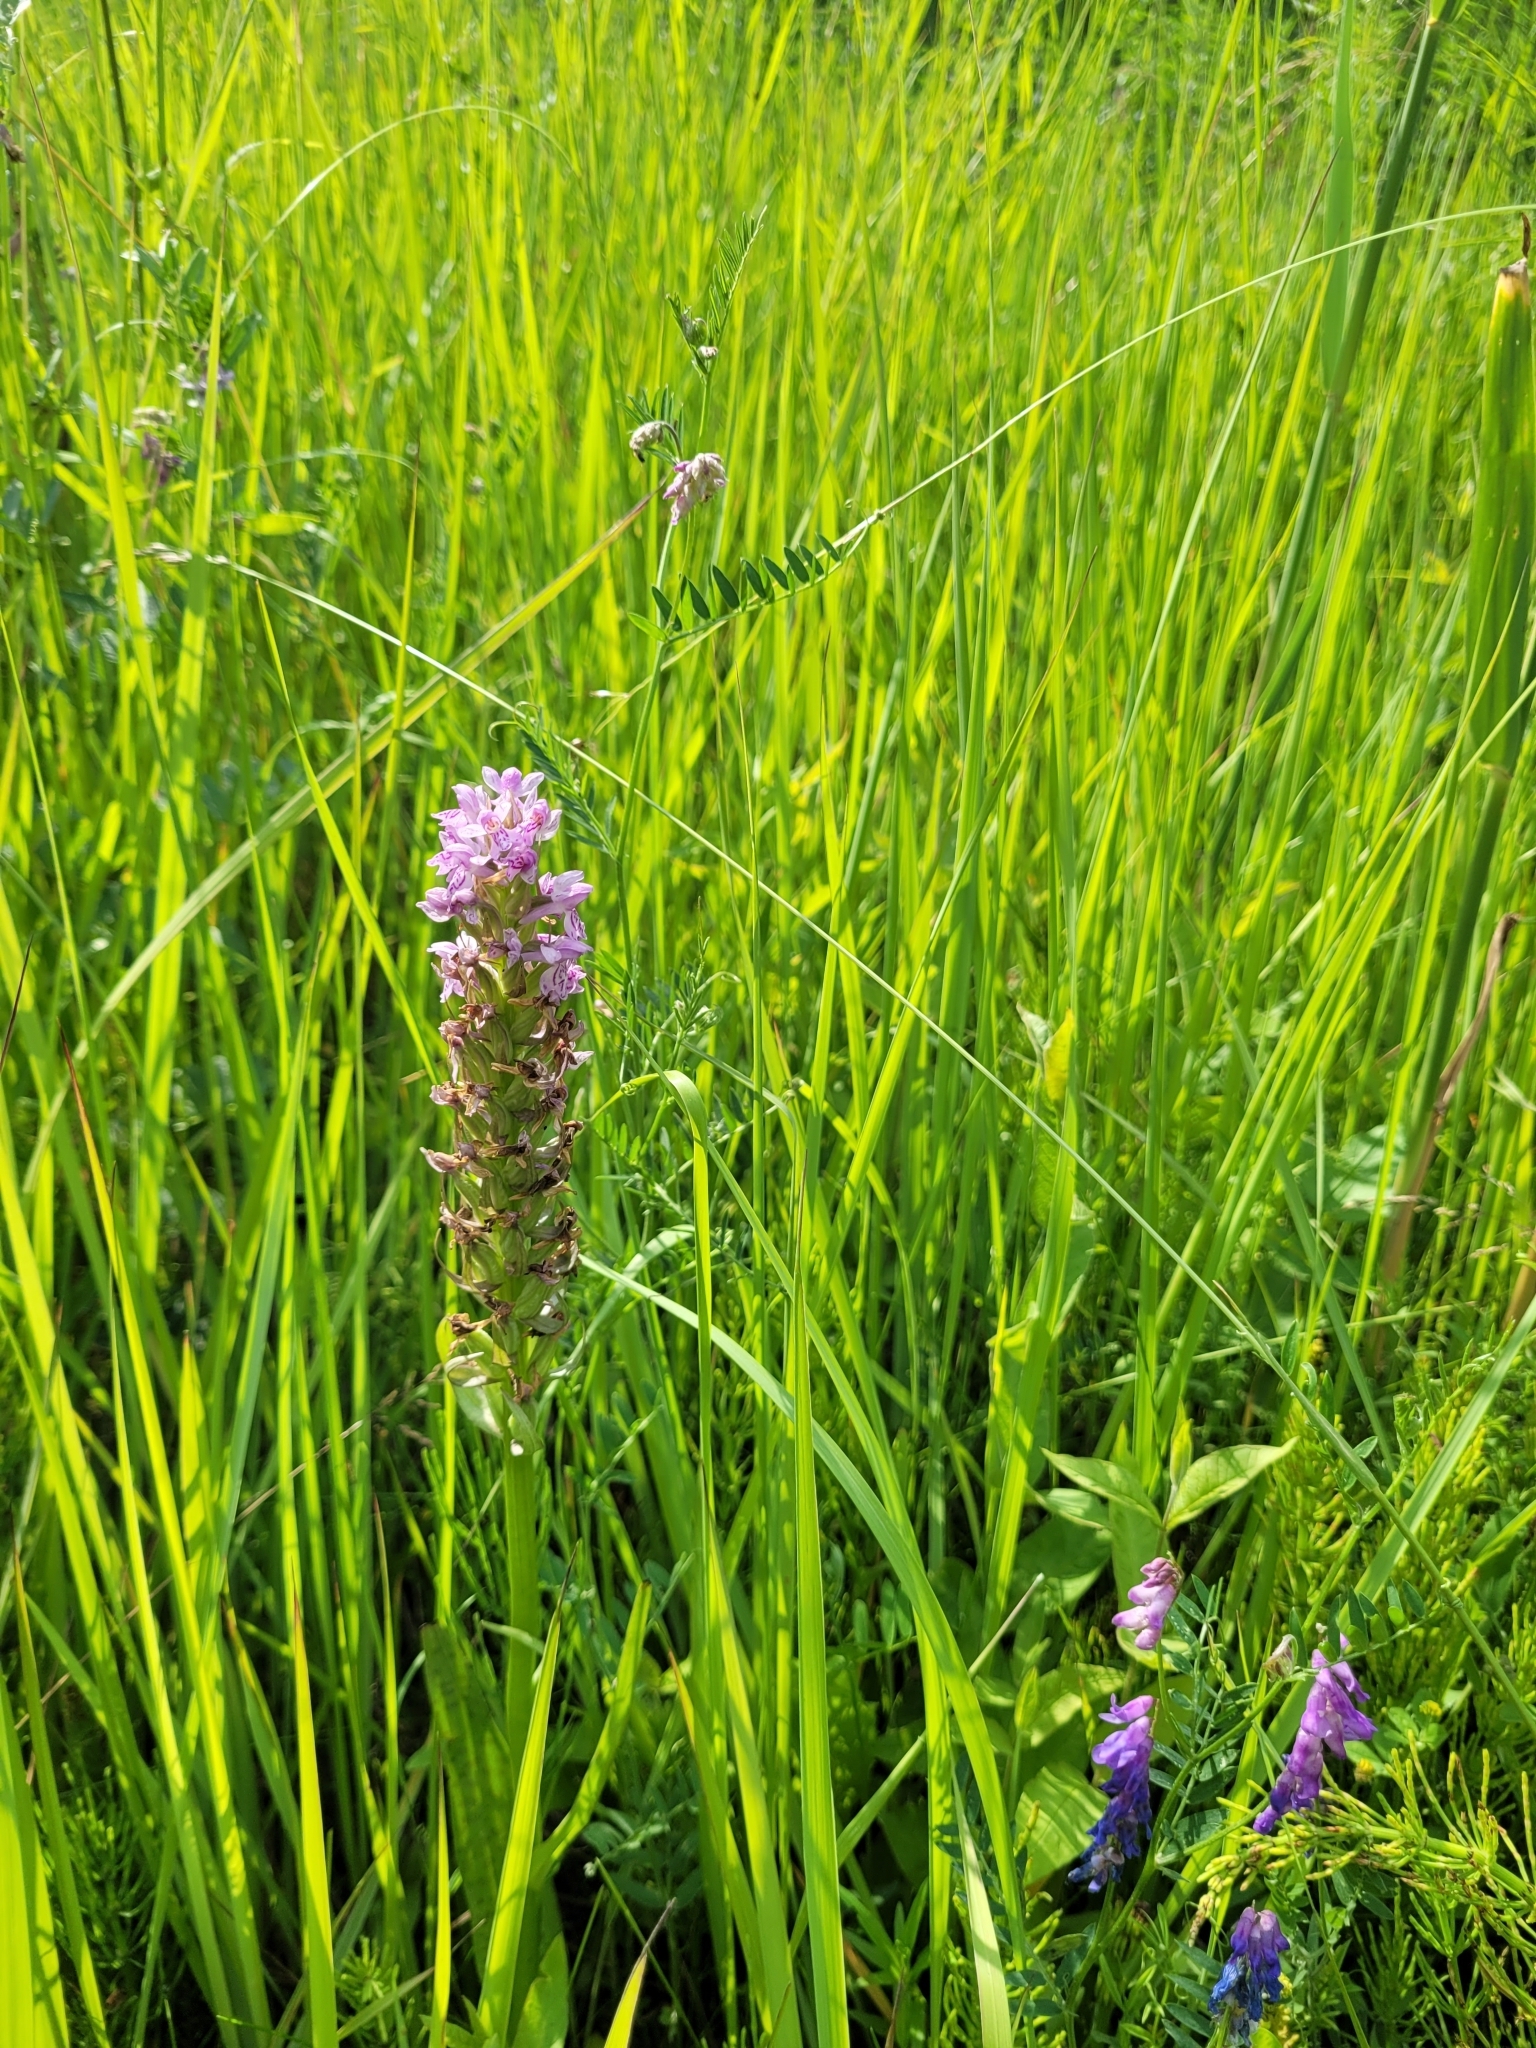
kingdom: Plantae
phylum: Tracheophyta
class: Liliopsida
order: Asparagales
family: Orchidaceae
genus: Dactylorhiza
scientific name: Dactylorhiza majalis
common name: Marsh orchid
